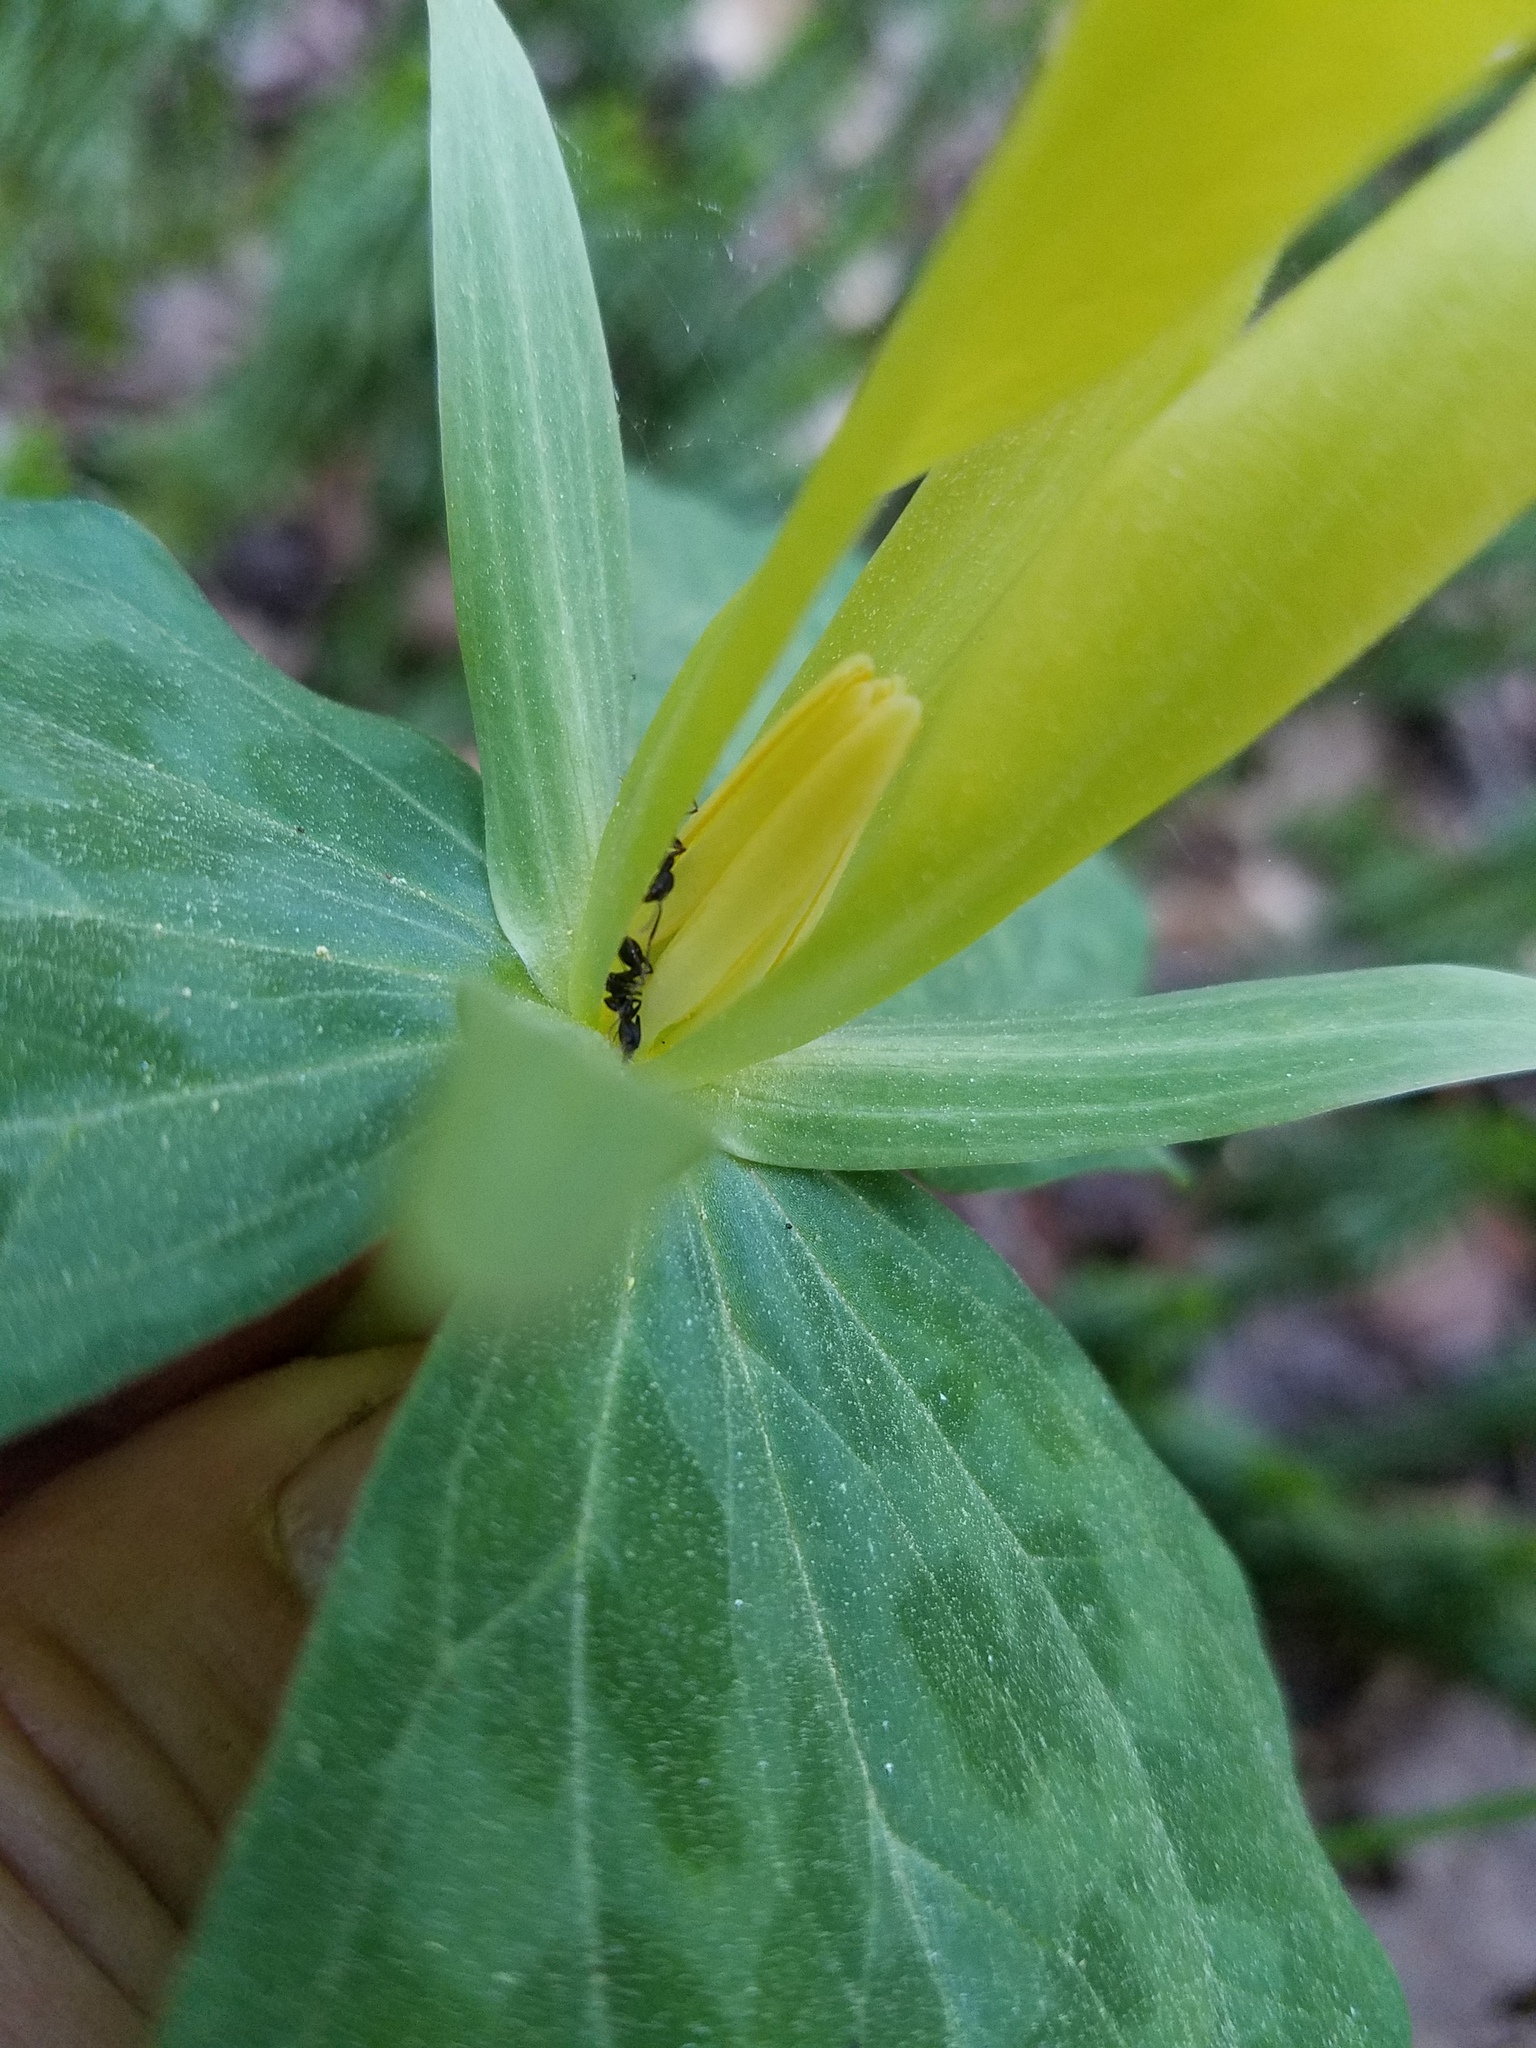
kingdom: Plantae
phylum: Tracheophyta
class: Liliopsida
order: Liliales
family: Melanthiaceae
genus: Trillium
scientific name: Trillium luteum
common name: Wax trillium
